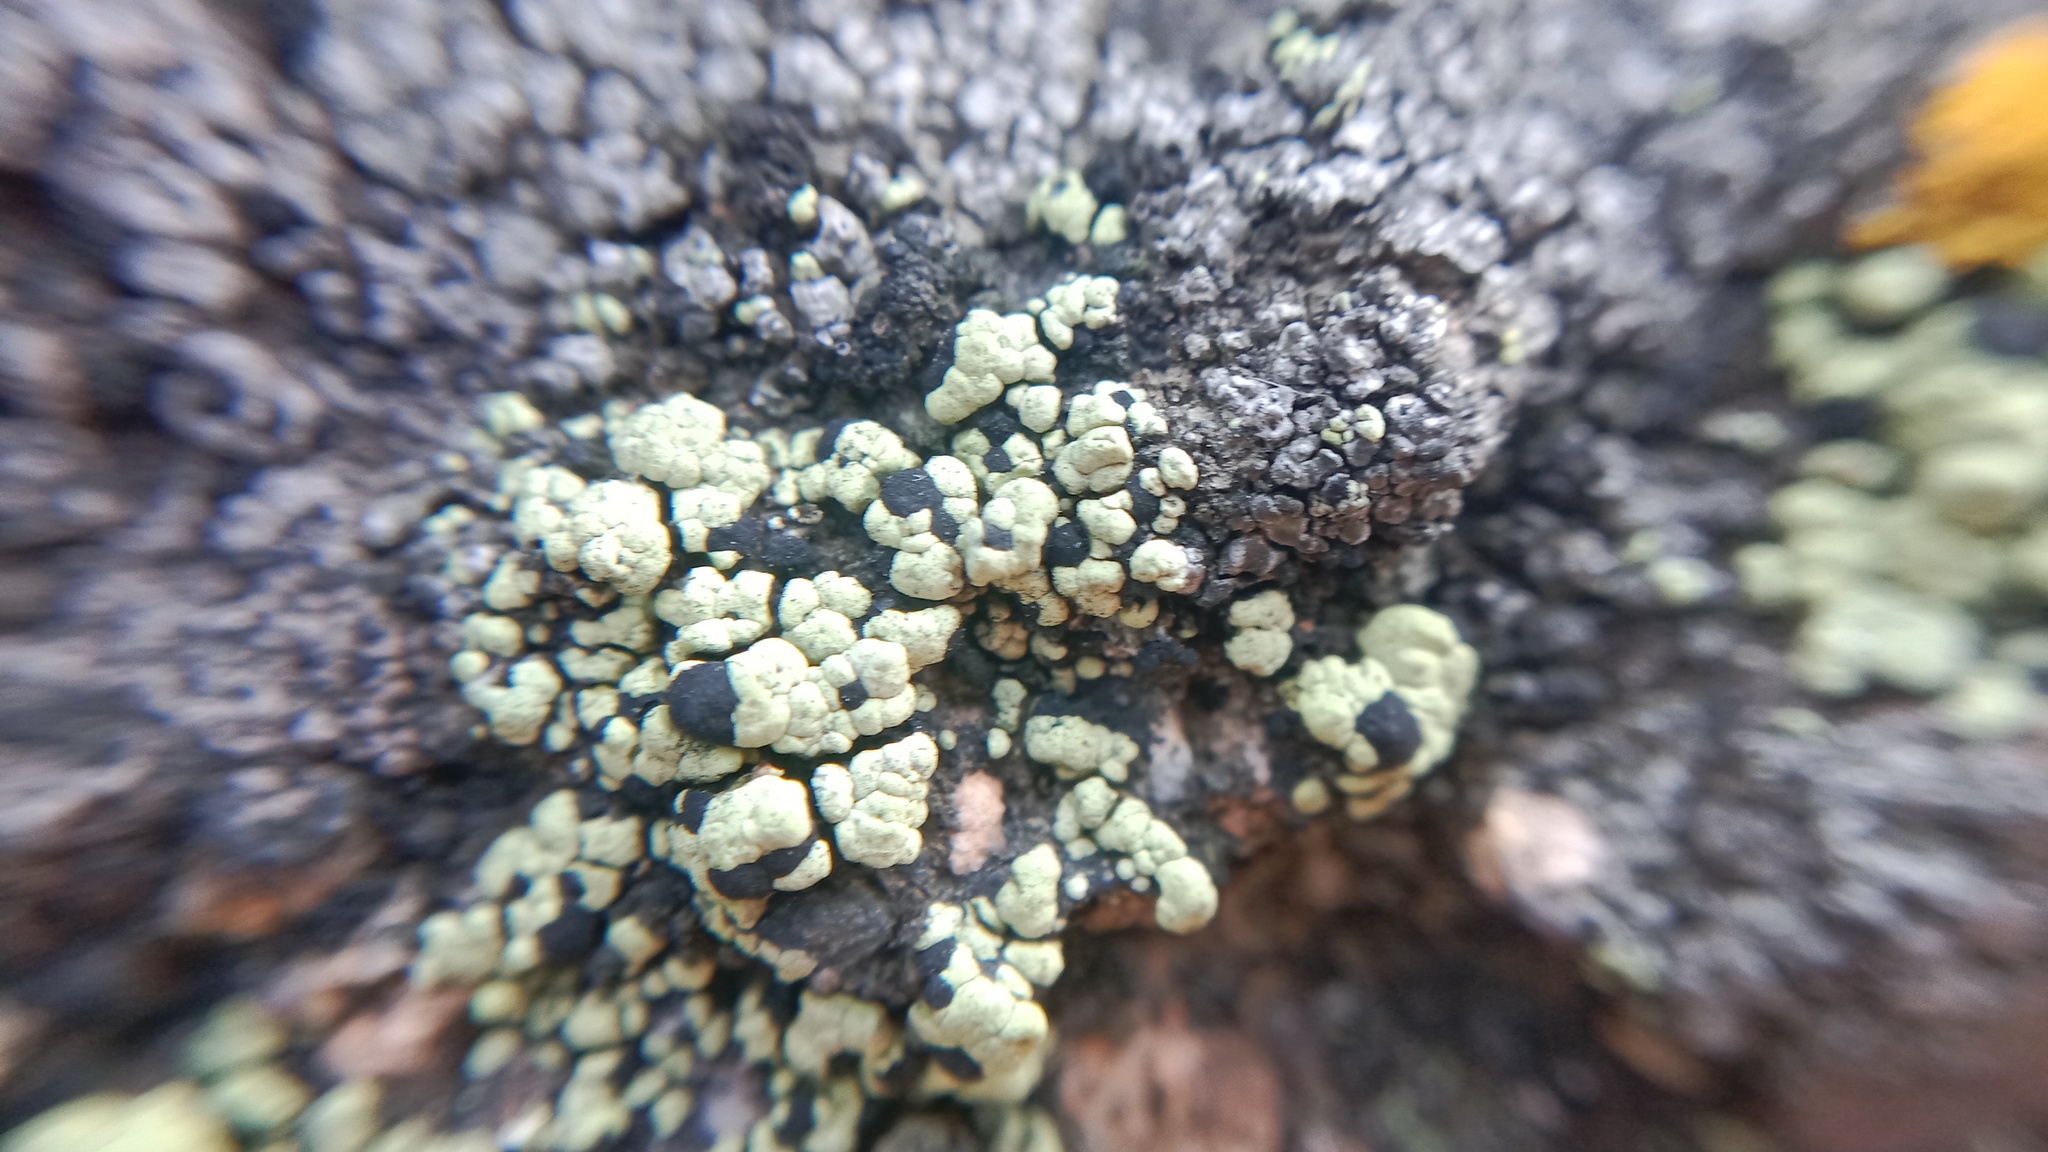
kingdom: Fungi
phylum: Ascomycota
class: Lecanoromycetes
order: Rhizocarpales
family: Rhizocarpaceae
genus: Rhizocarpon
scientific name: Rhizocarpon viridiatrum
